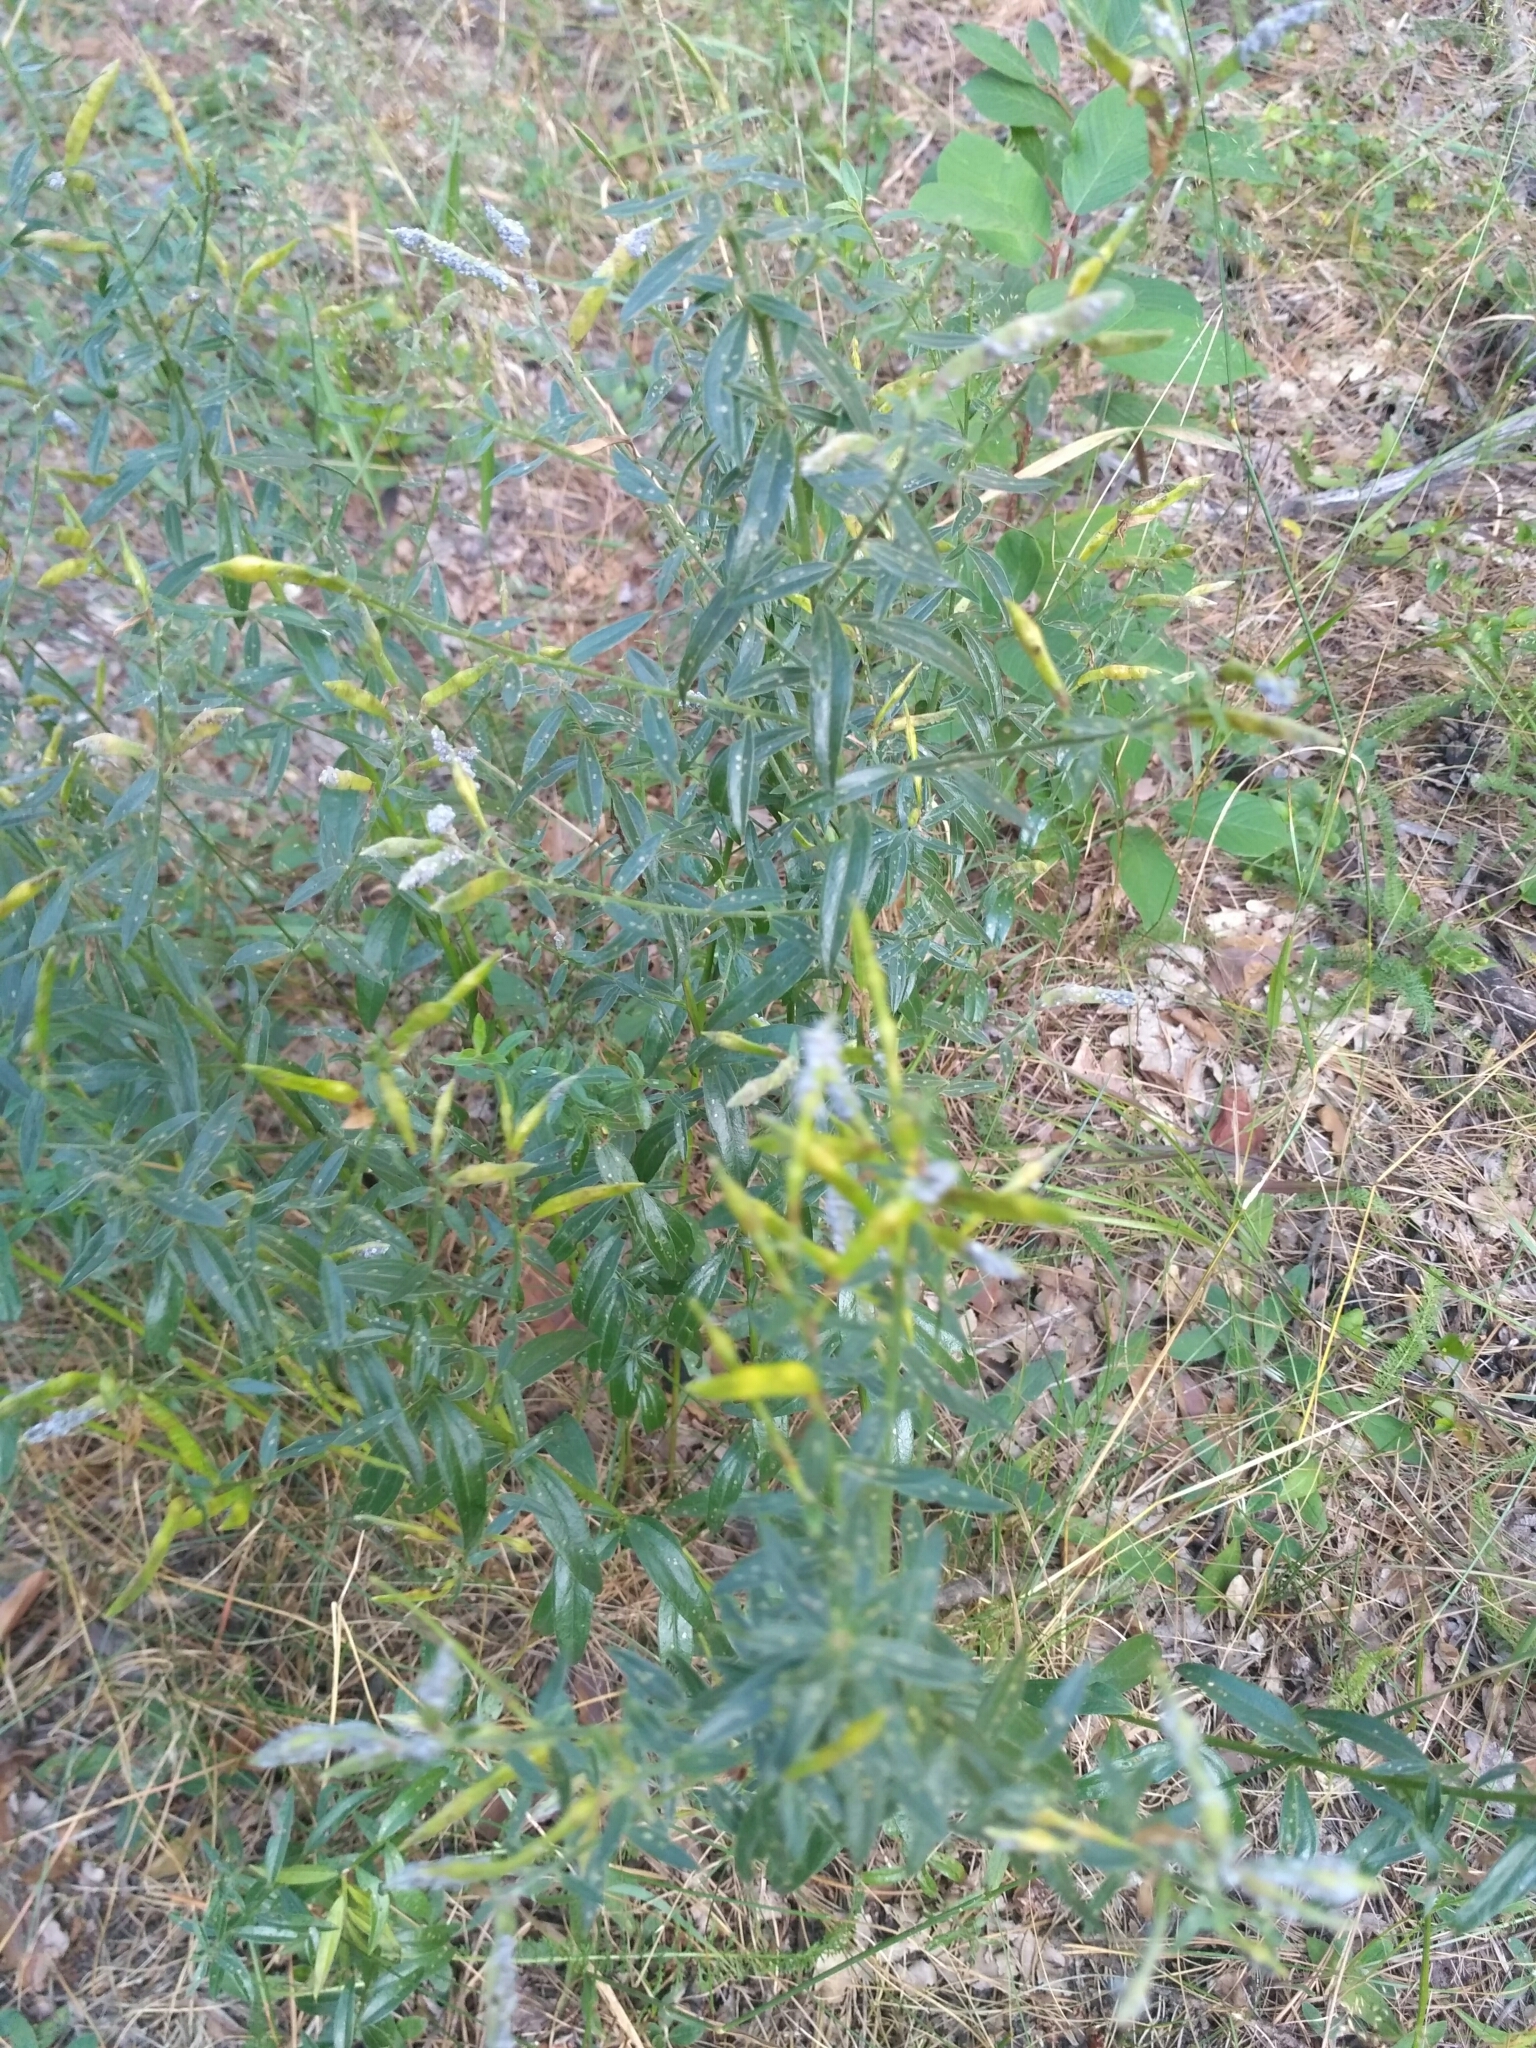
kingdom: Plantae
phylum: Tracheophyta
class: Magnoliopsida
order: Fabales
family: Fabaceae
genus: Genista
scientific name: Genista tinctoria
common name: Dyer's greenweed
